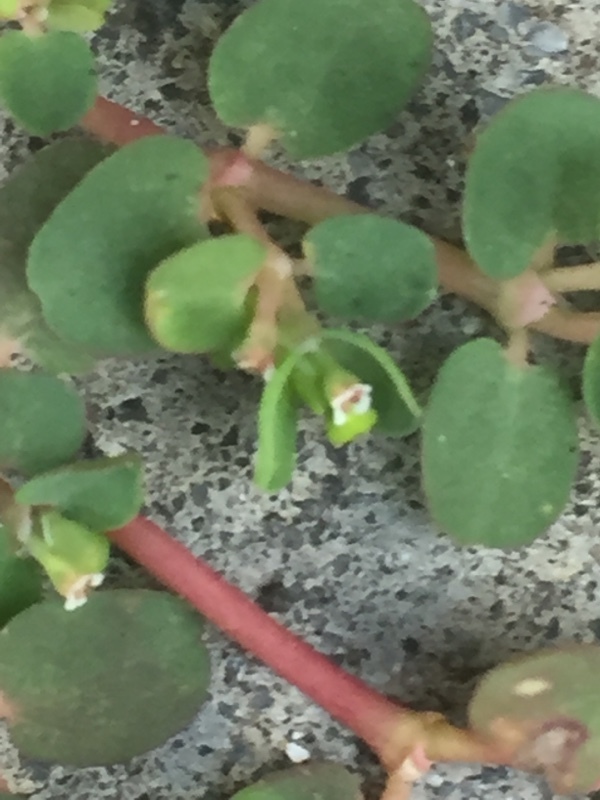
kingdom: Plantae
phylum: Tracheophyta
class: Magnoliopsida
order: Malpighiales
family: Euphorbiaceae
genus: Euphorbia
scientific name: Euphorbia serpens
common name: Matted sandmat
